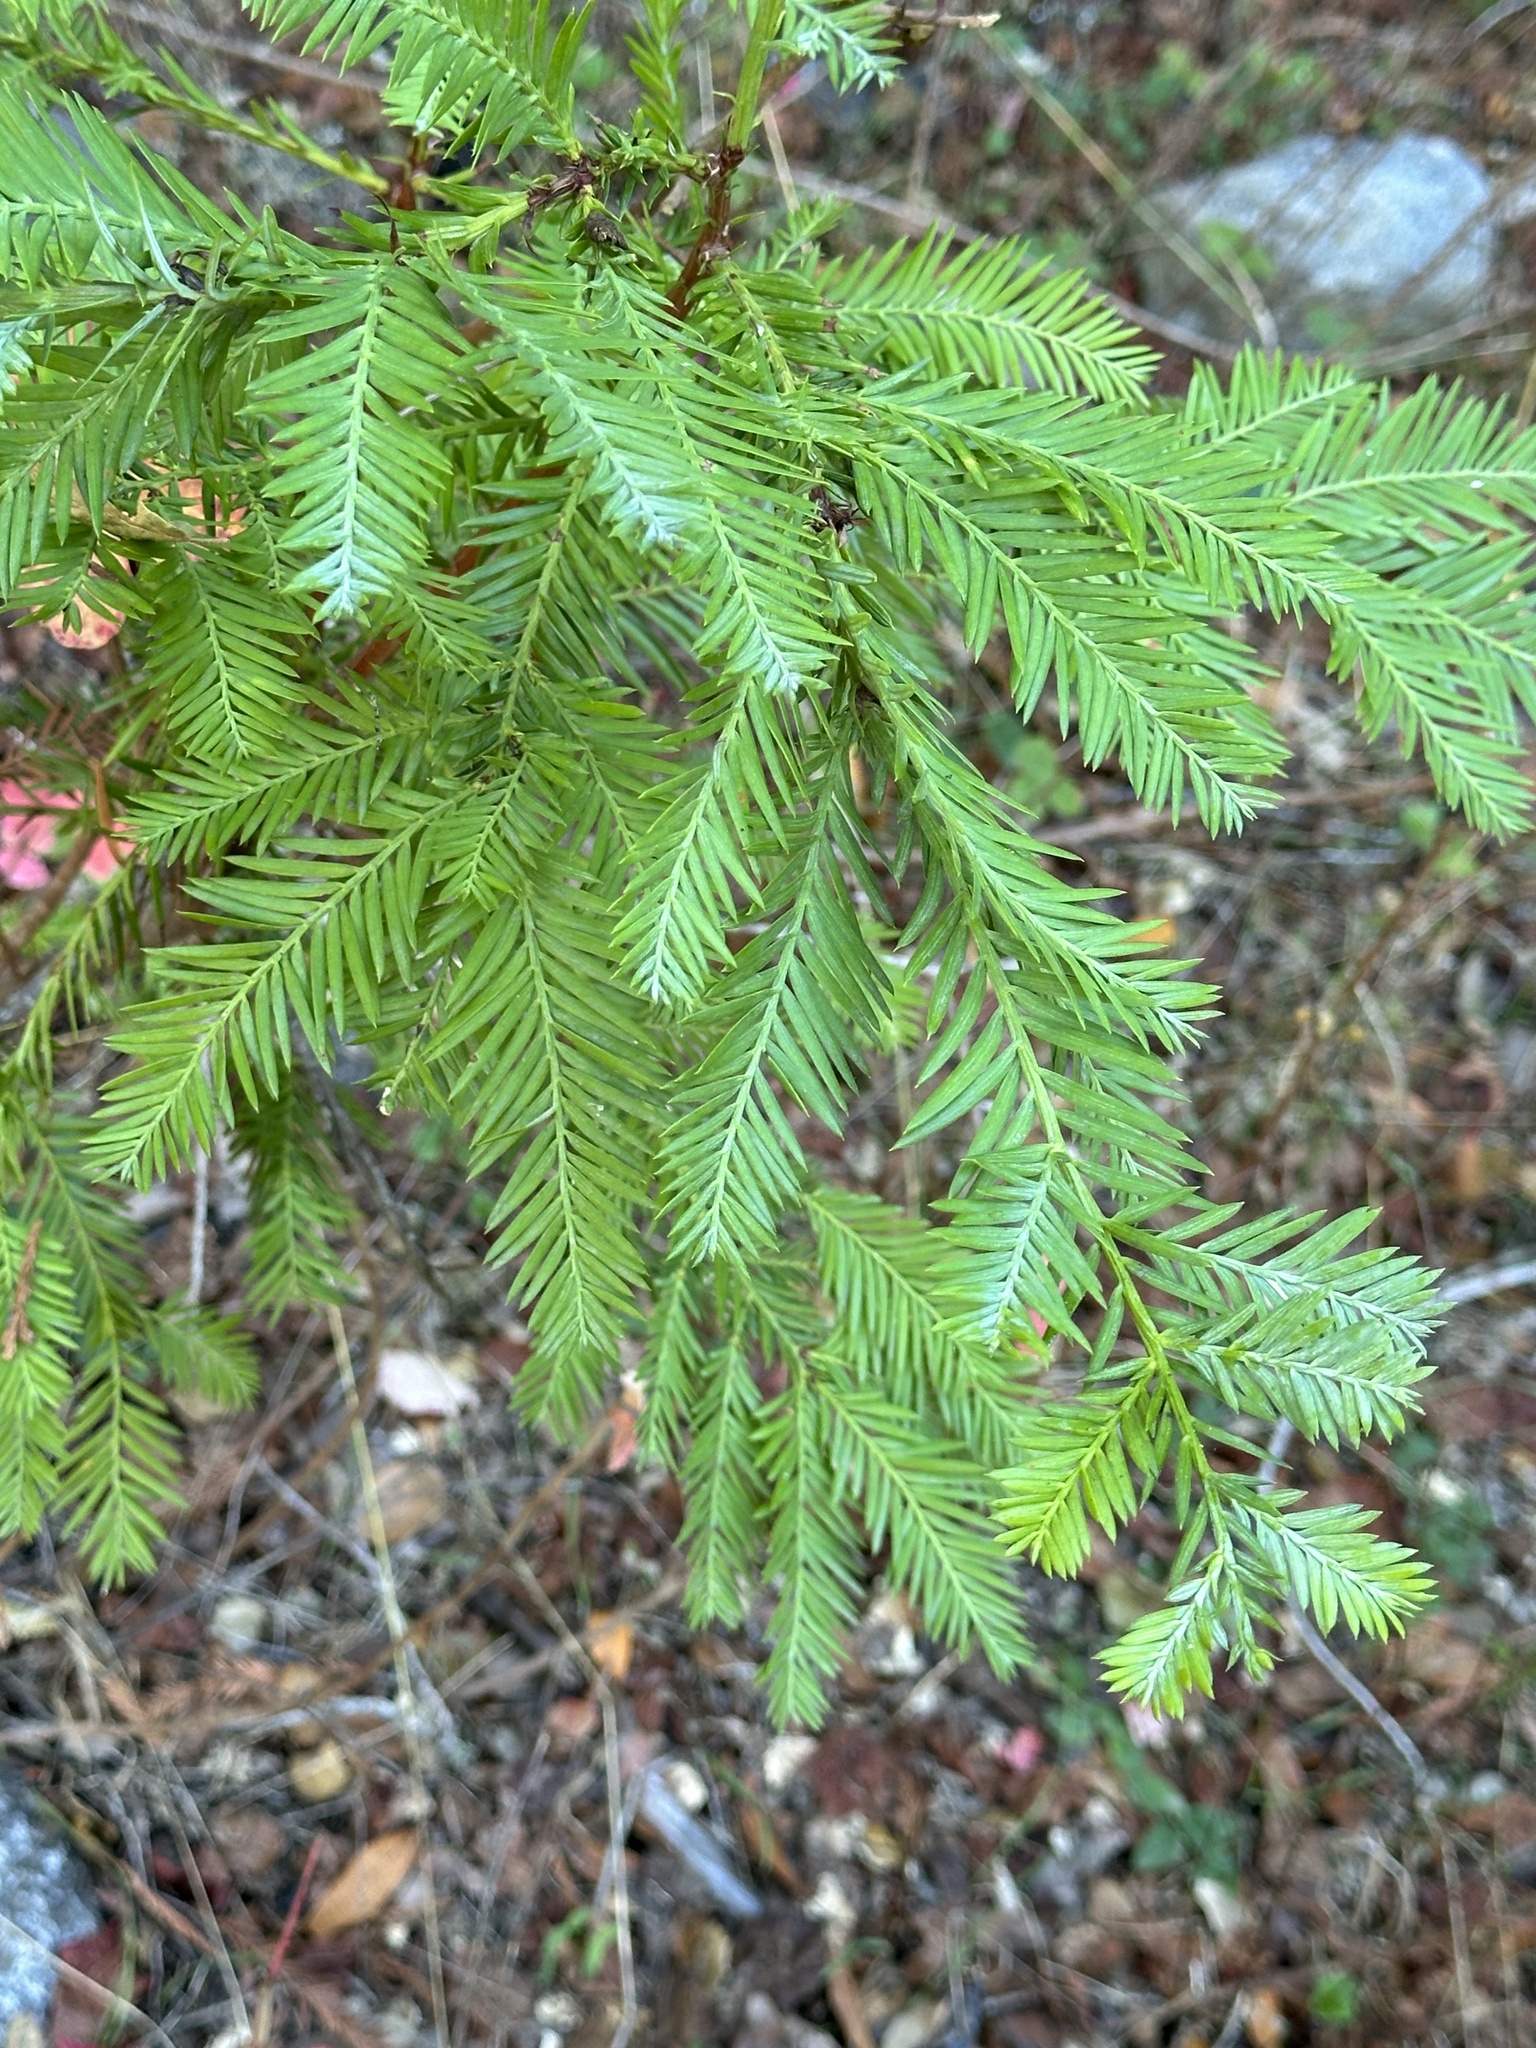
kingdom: Plantae
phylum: Tracheophyta
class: Pinopsida
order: Pinales
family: Cupressaceae
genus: Sequoia
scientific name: Sequoia sempervirens
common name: Coast redwood
